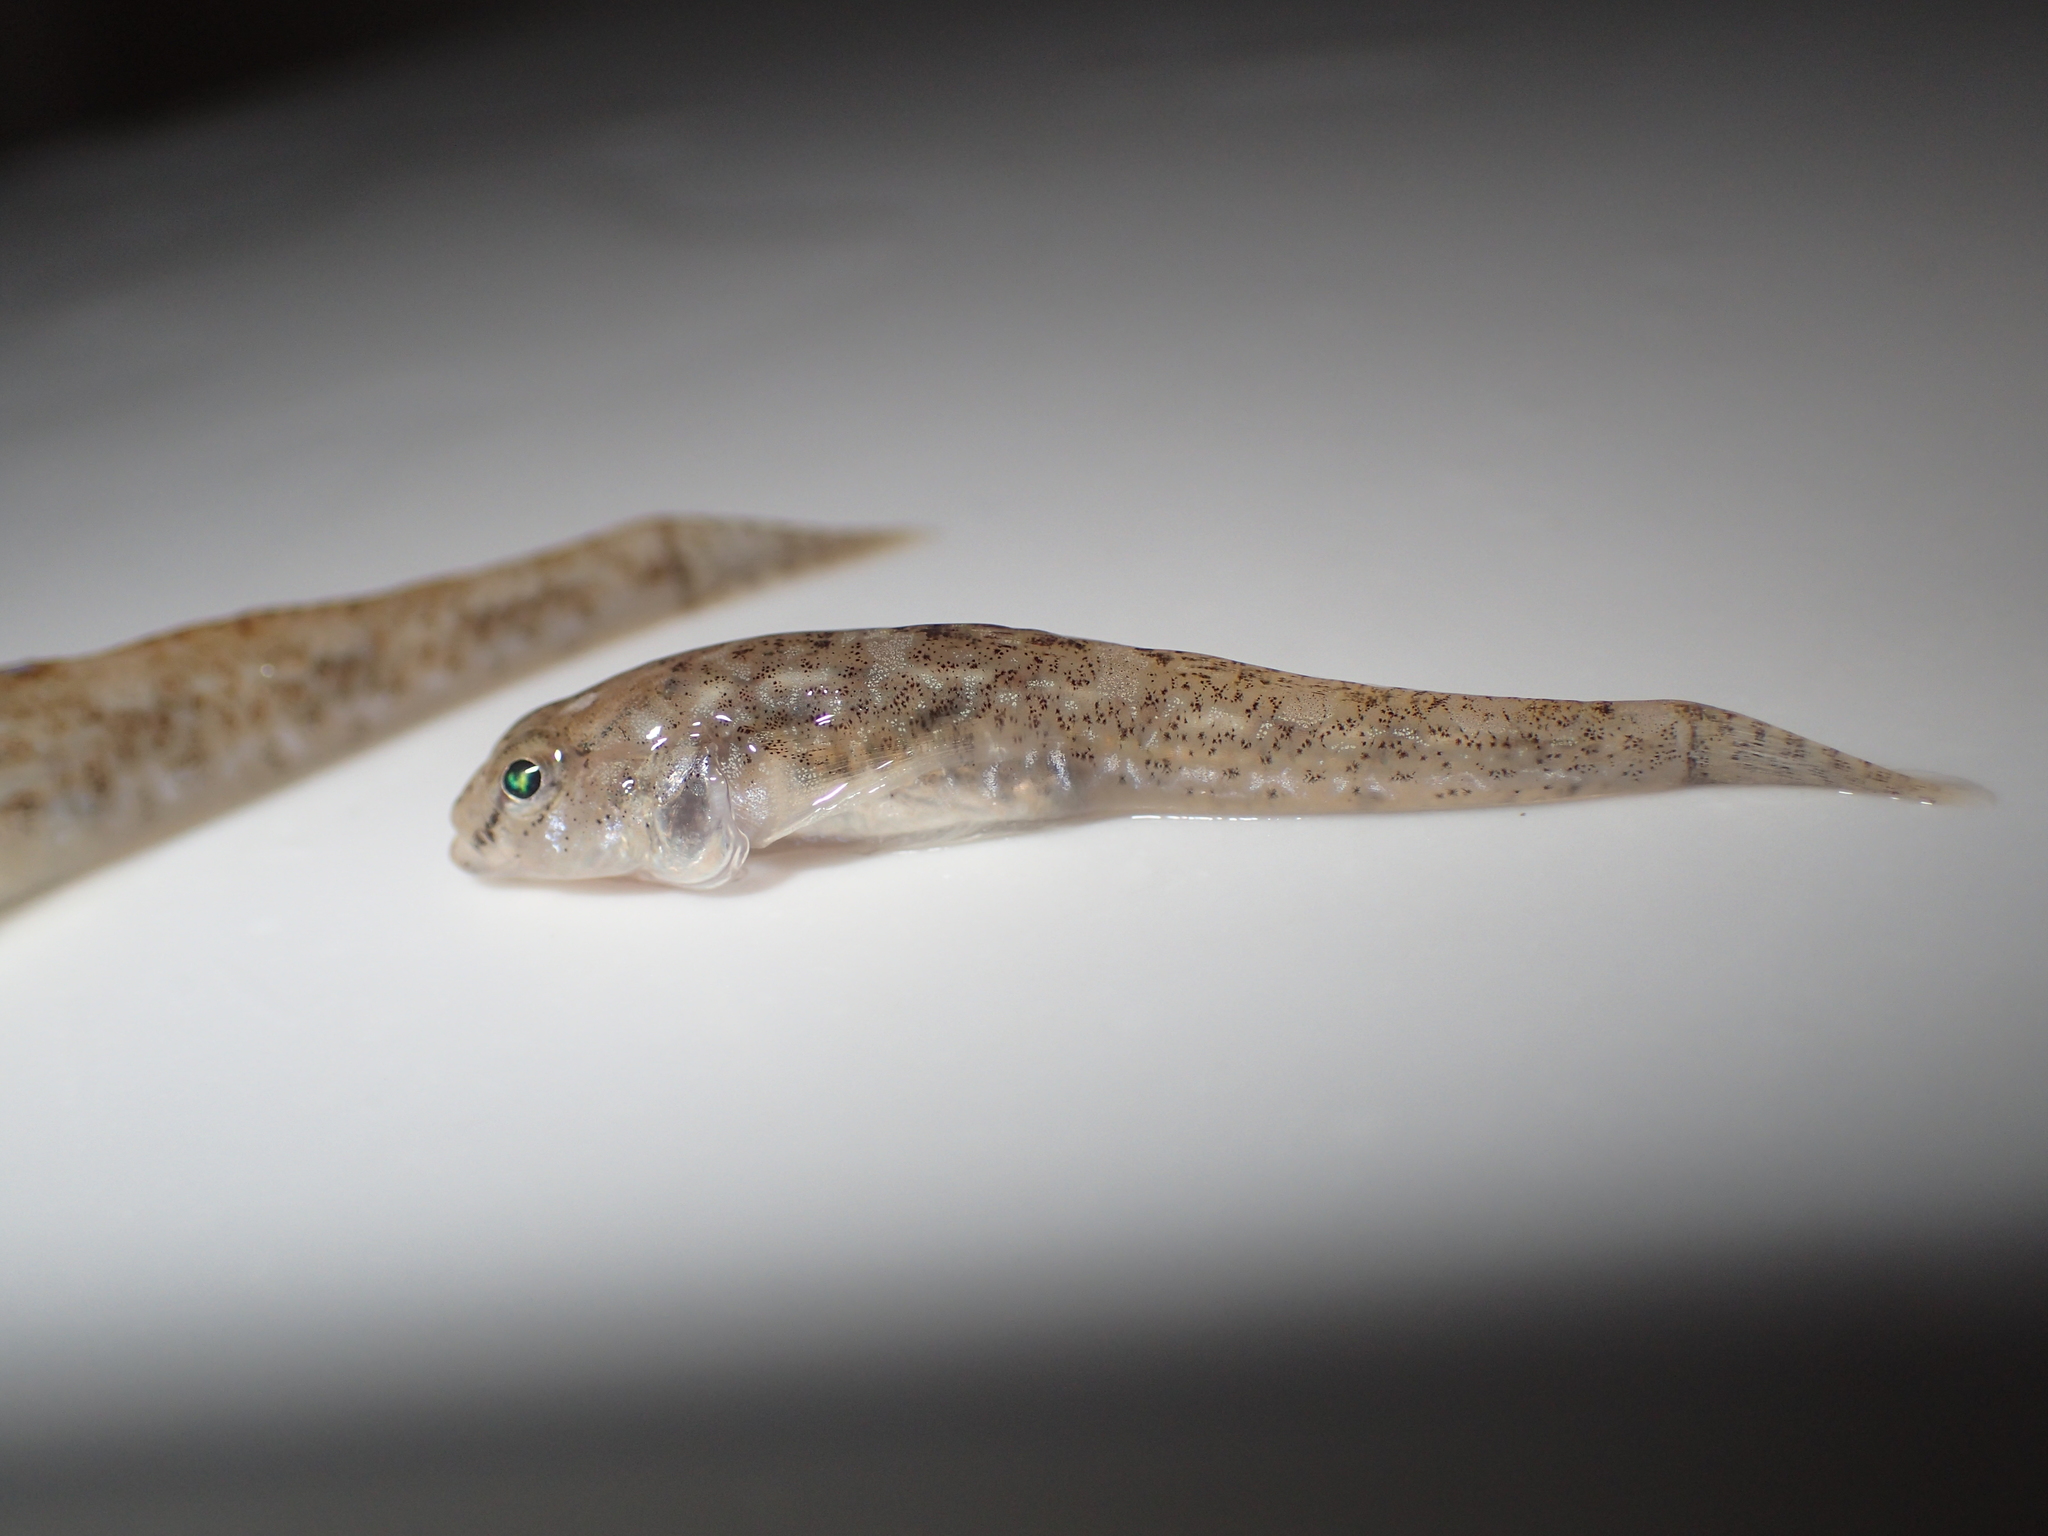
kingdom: Animalia
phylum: Chordata
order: Perciformes
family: Gobiidae
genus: Pomatoschistus
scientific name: Pomatoschistus microps
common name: Common goby
